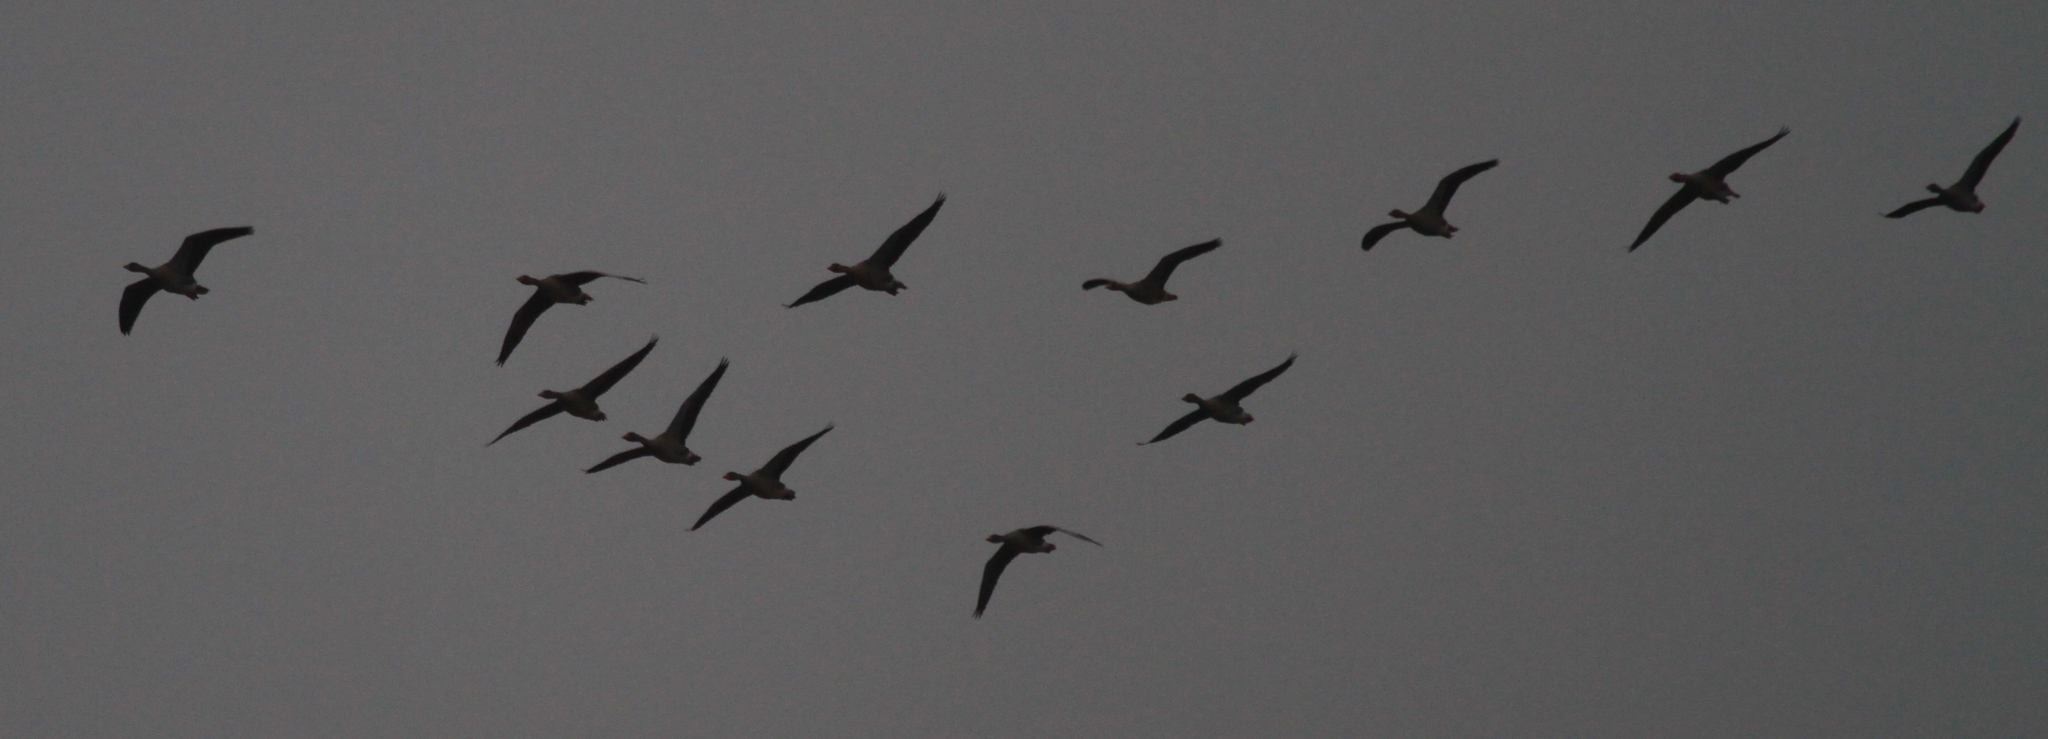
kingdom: Animalia
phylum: Chordata
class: Aves
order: Anseriformes
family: Anatidae
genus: Anser
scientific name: Anser anser
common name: Greylag goose
